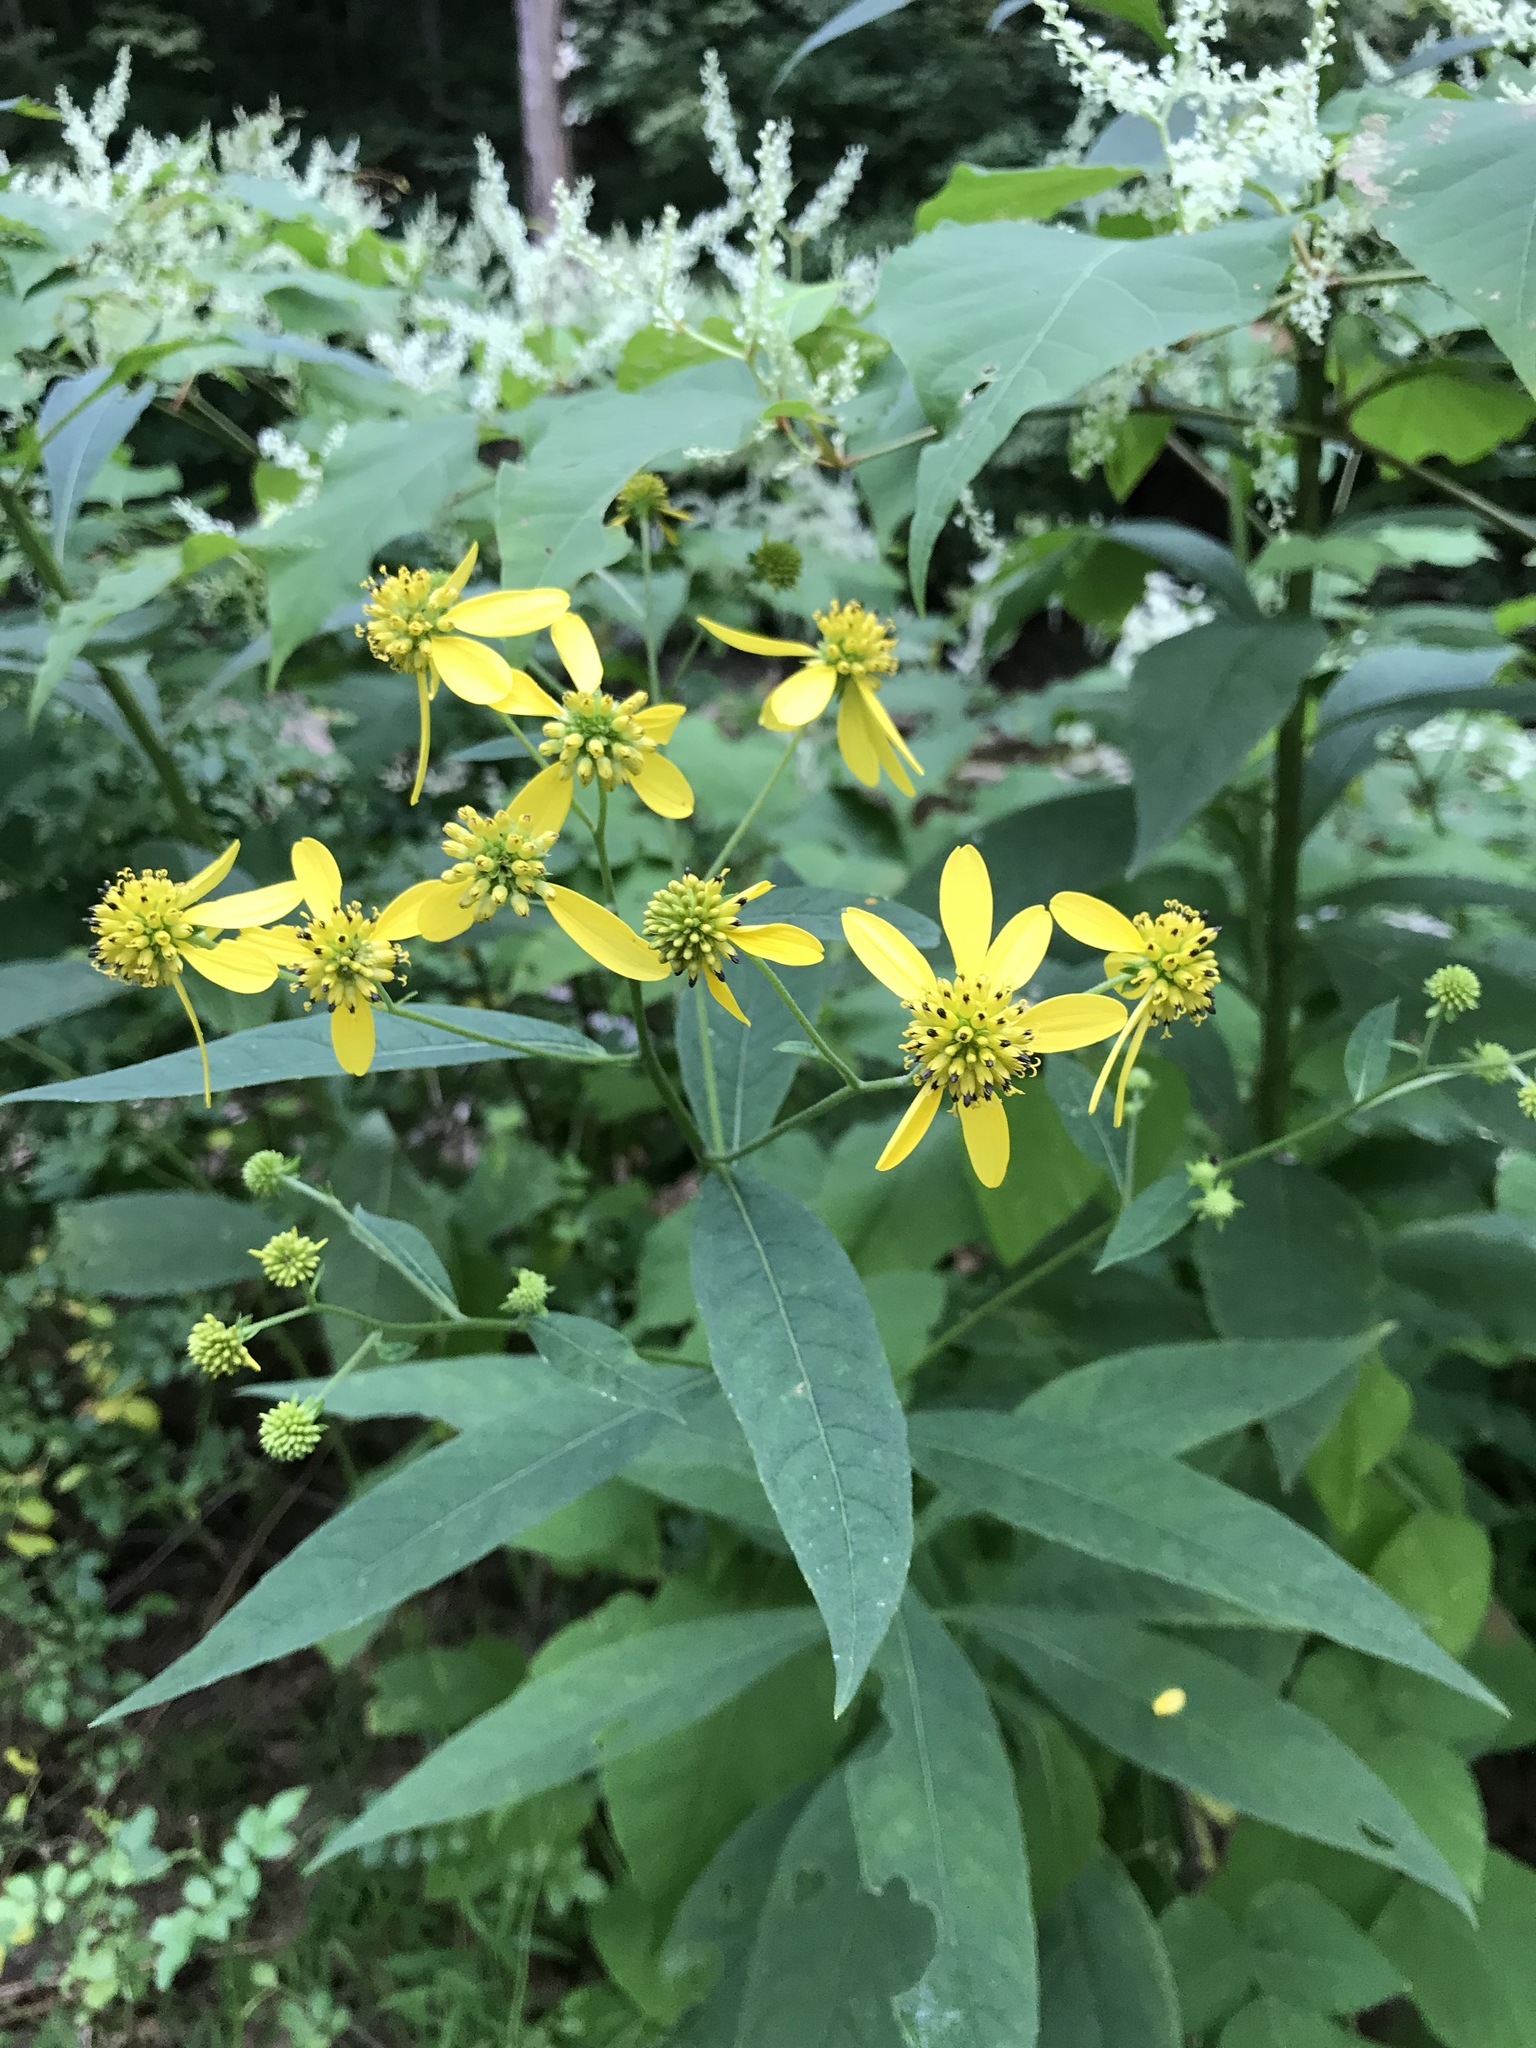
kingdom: Plantae
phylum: Tracheophyta
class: Magnoliopsida
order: Asterales
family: Asteraceae
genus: Verbesina
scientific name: Verbesina alternifolia
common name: Wingstem
